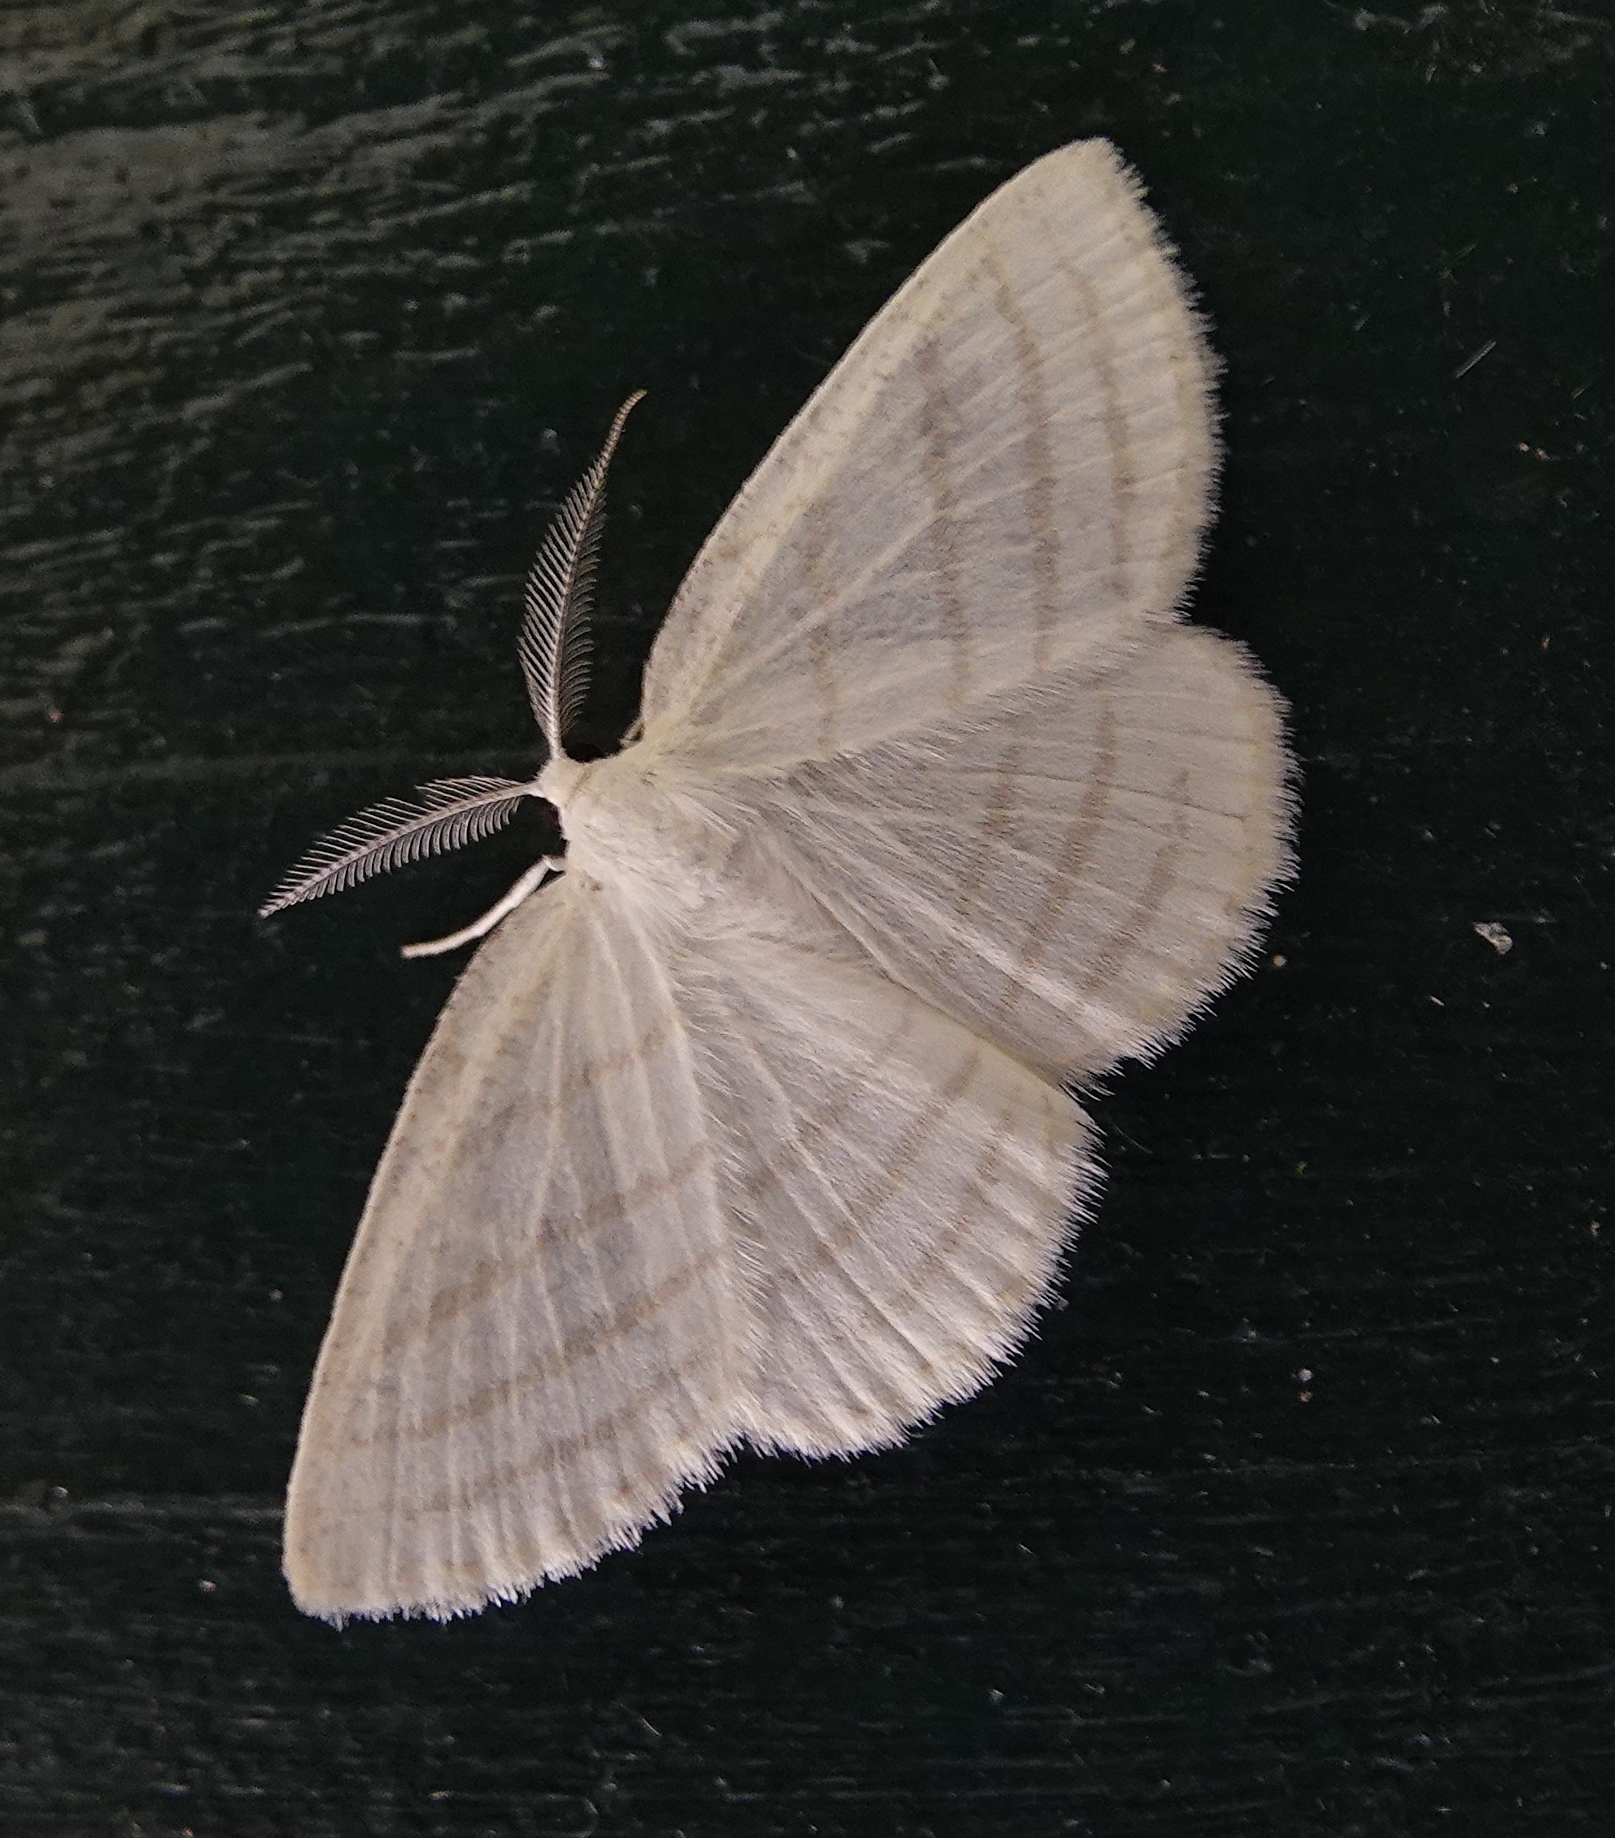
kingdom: Animalia
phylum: Arthropoda
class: Insecta
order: Lepidoptera
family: Geometridae
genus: Cabera
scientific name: Cabera quadrifasciaria
